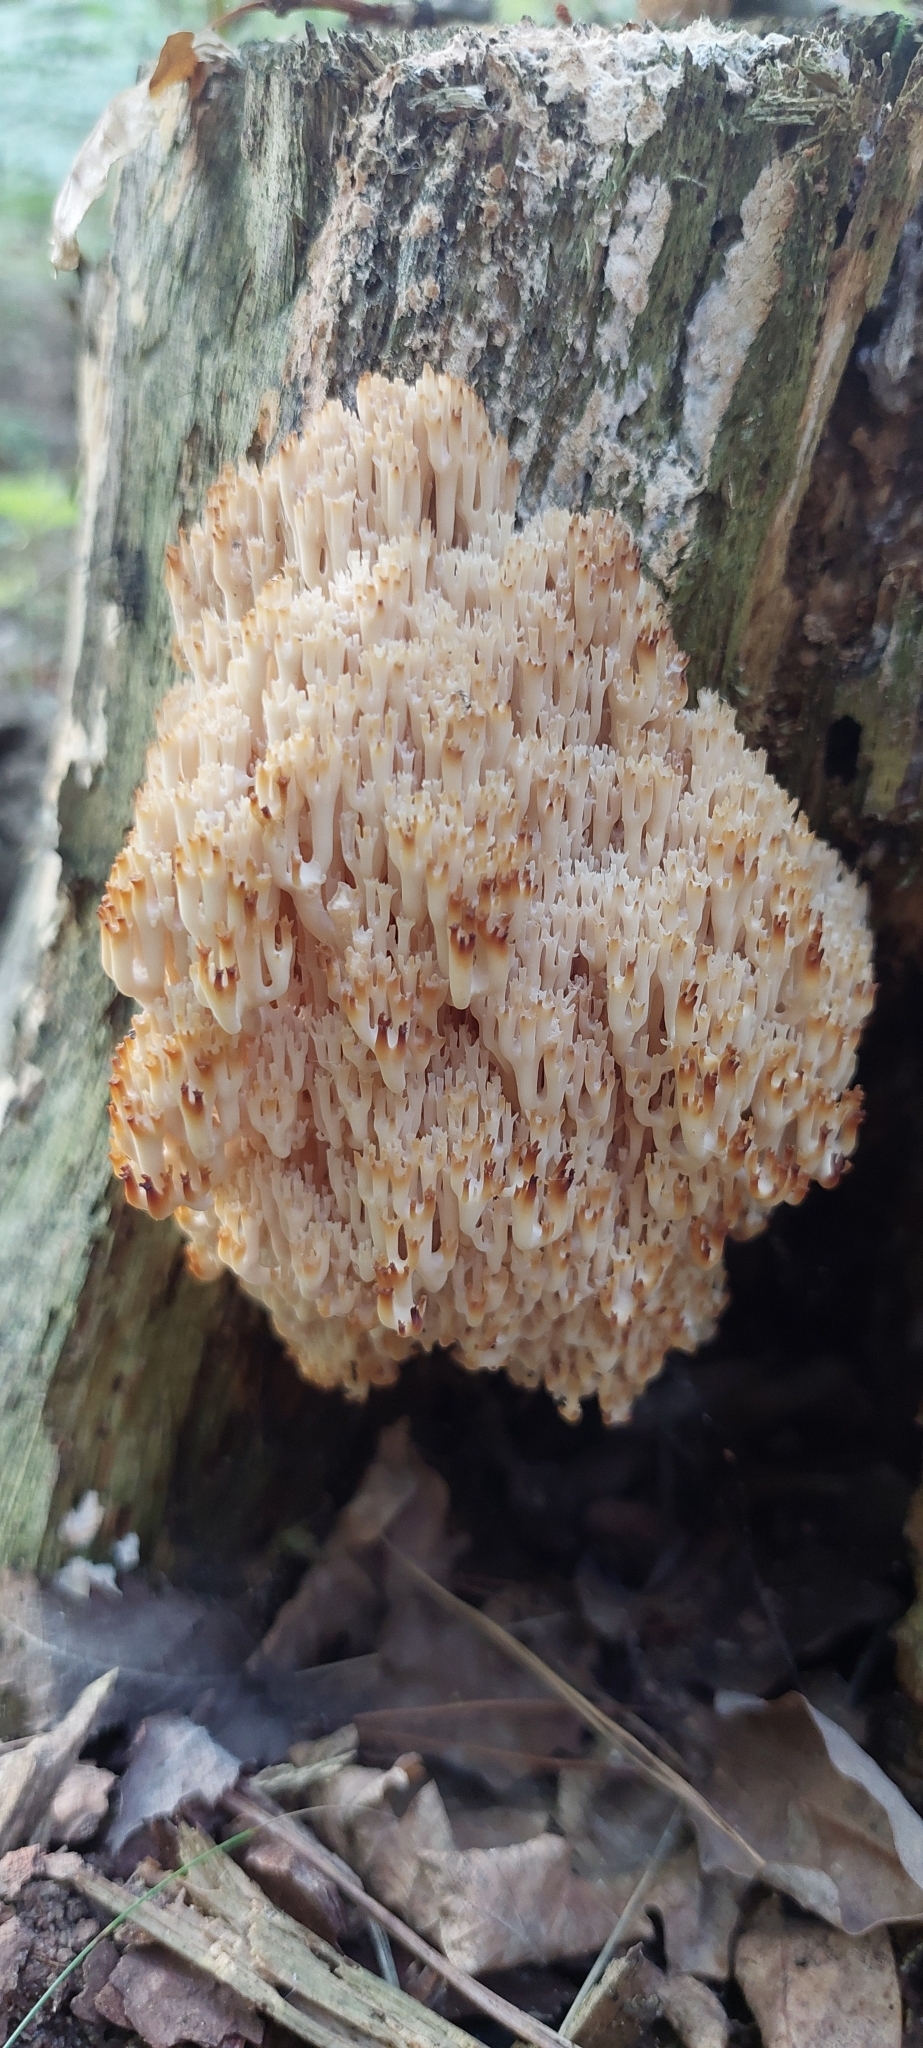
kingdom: Fungi
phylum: Basidiomycota
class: Agaricomycetes
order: Russulales
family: Auriscalpiaceae
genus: Artomyces
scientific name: Artomyces pyxidatus
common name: Crown-tipped coral fungus
